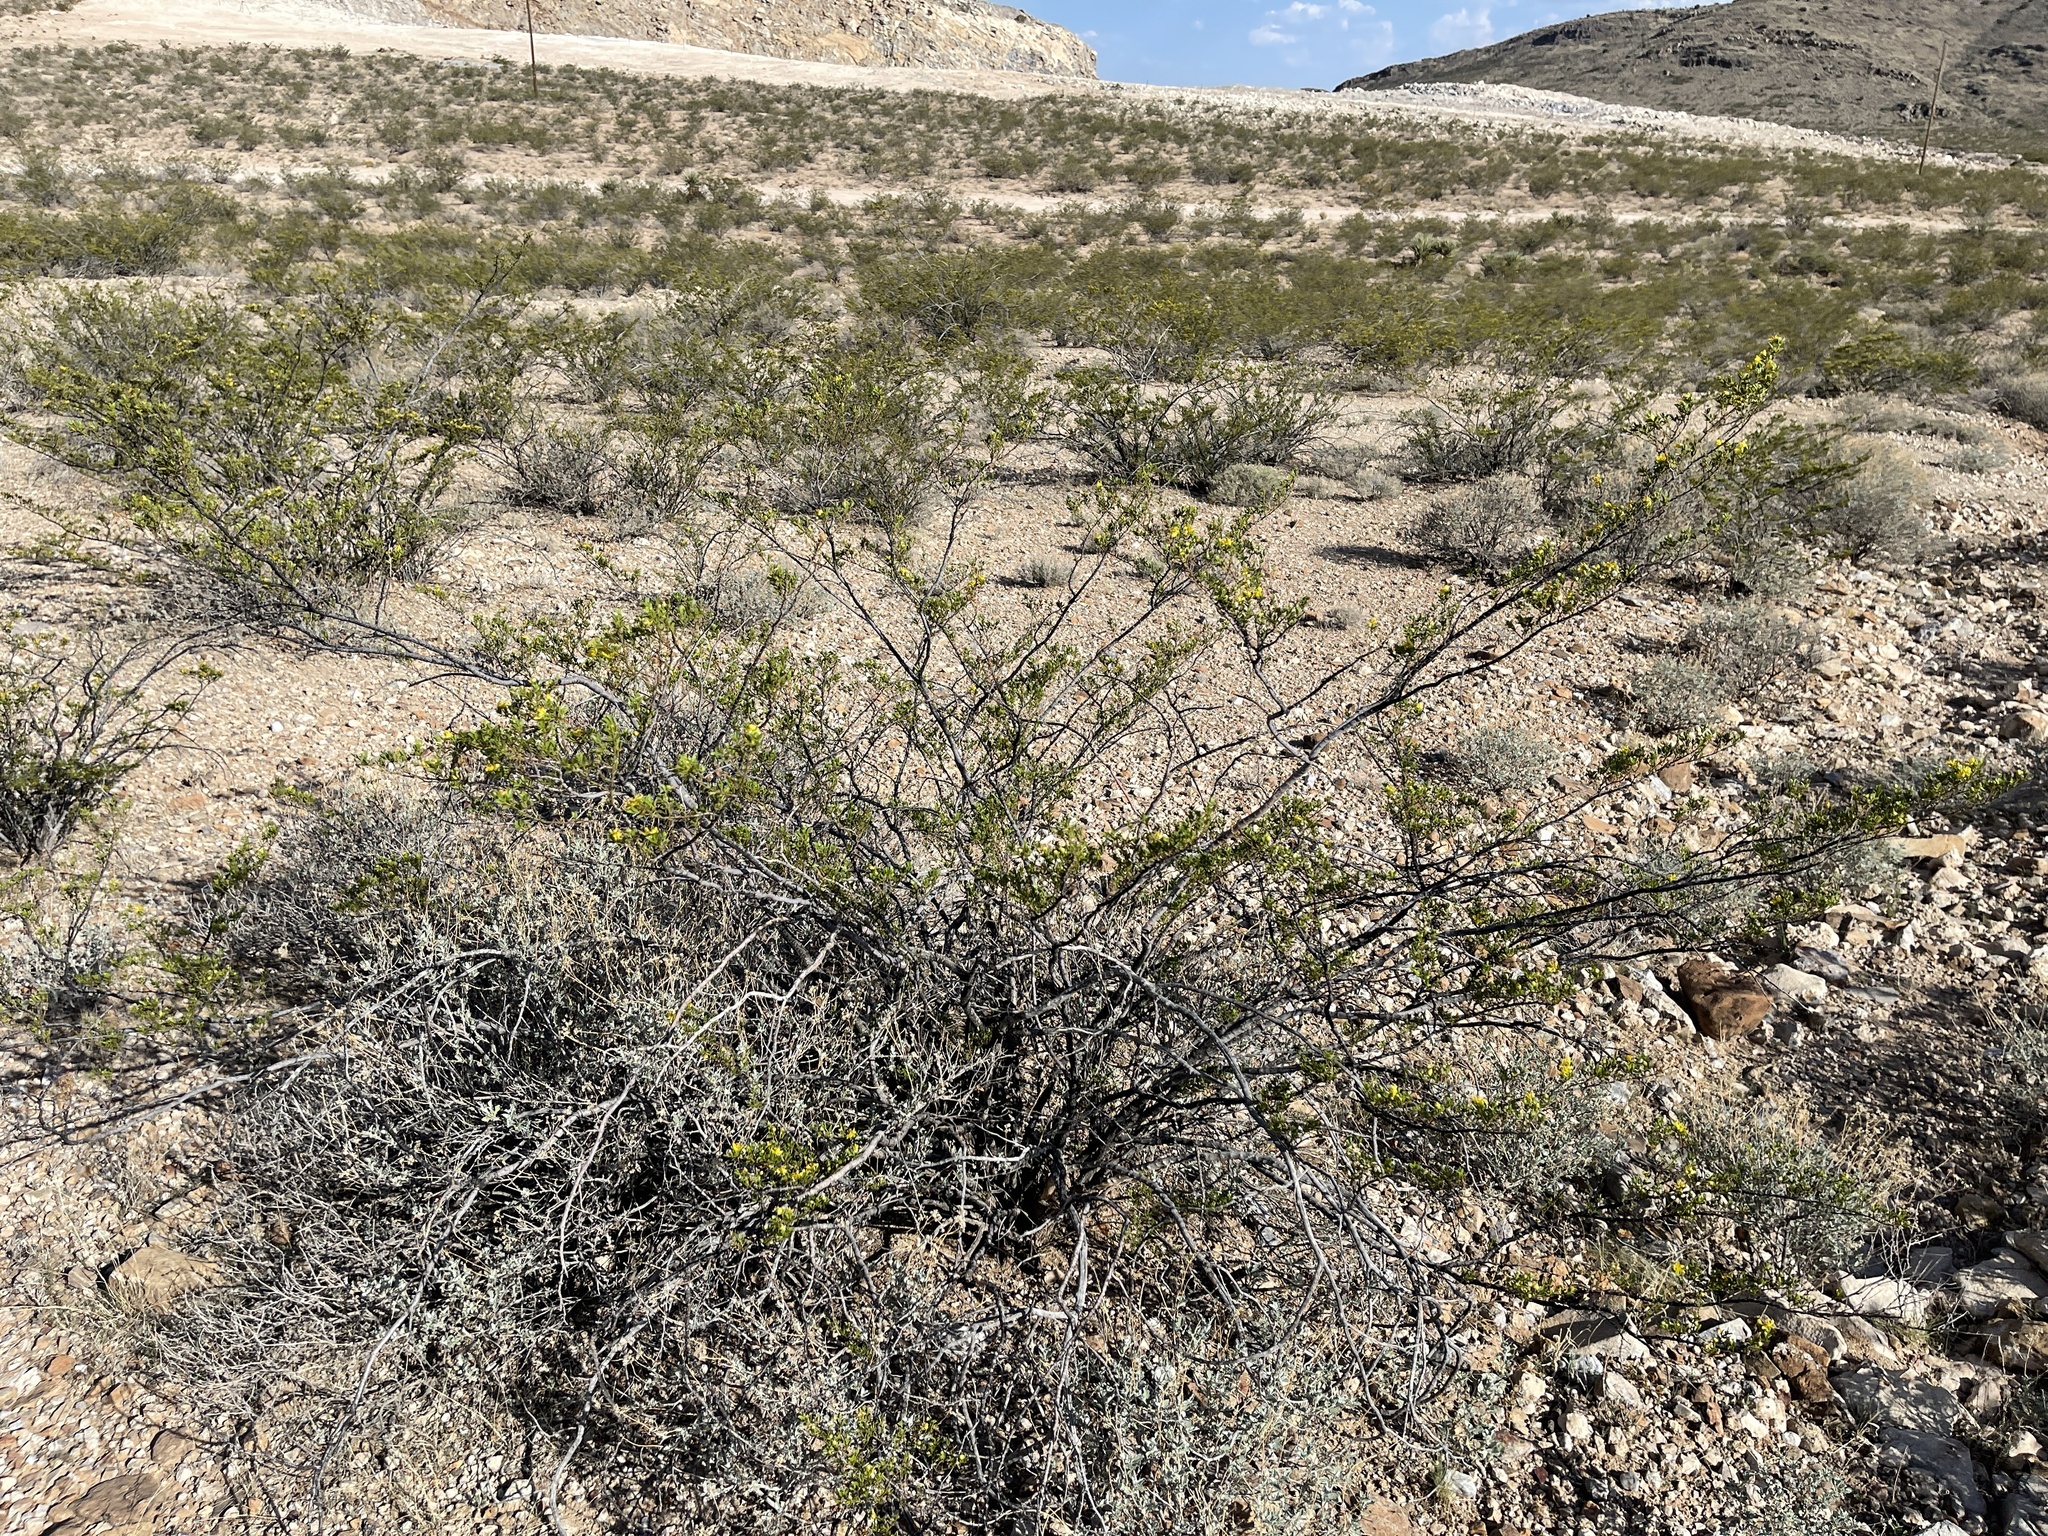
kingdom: Plantae
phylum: Tracheophyta
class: Magnoliopsida
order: Zygophyllales
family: Zygophyllaceae
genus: Larrea
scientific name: Larrea tridentata
